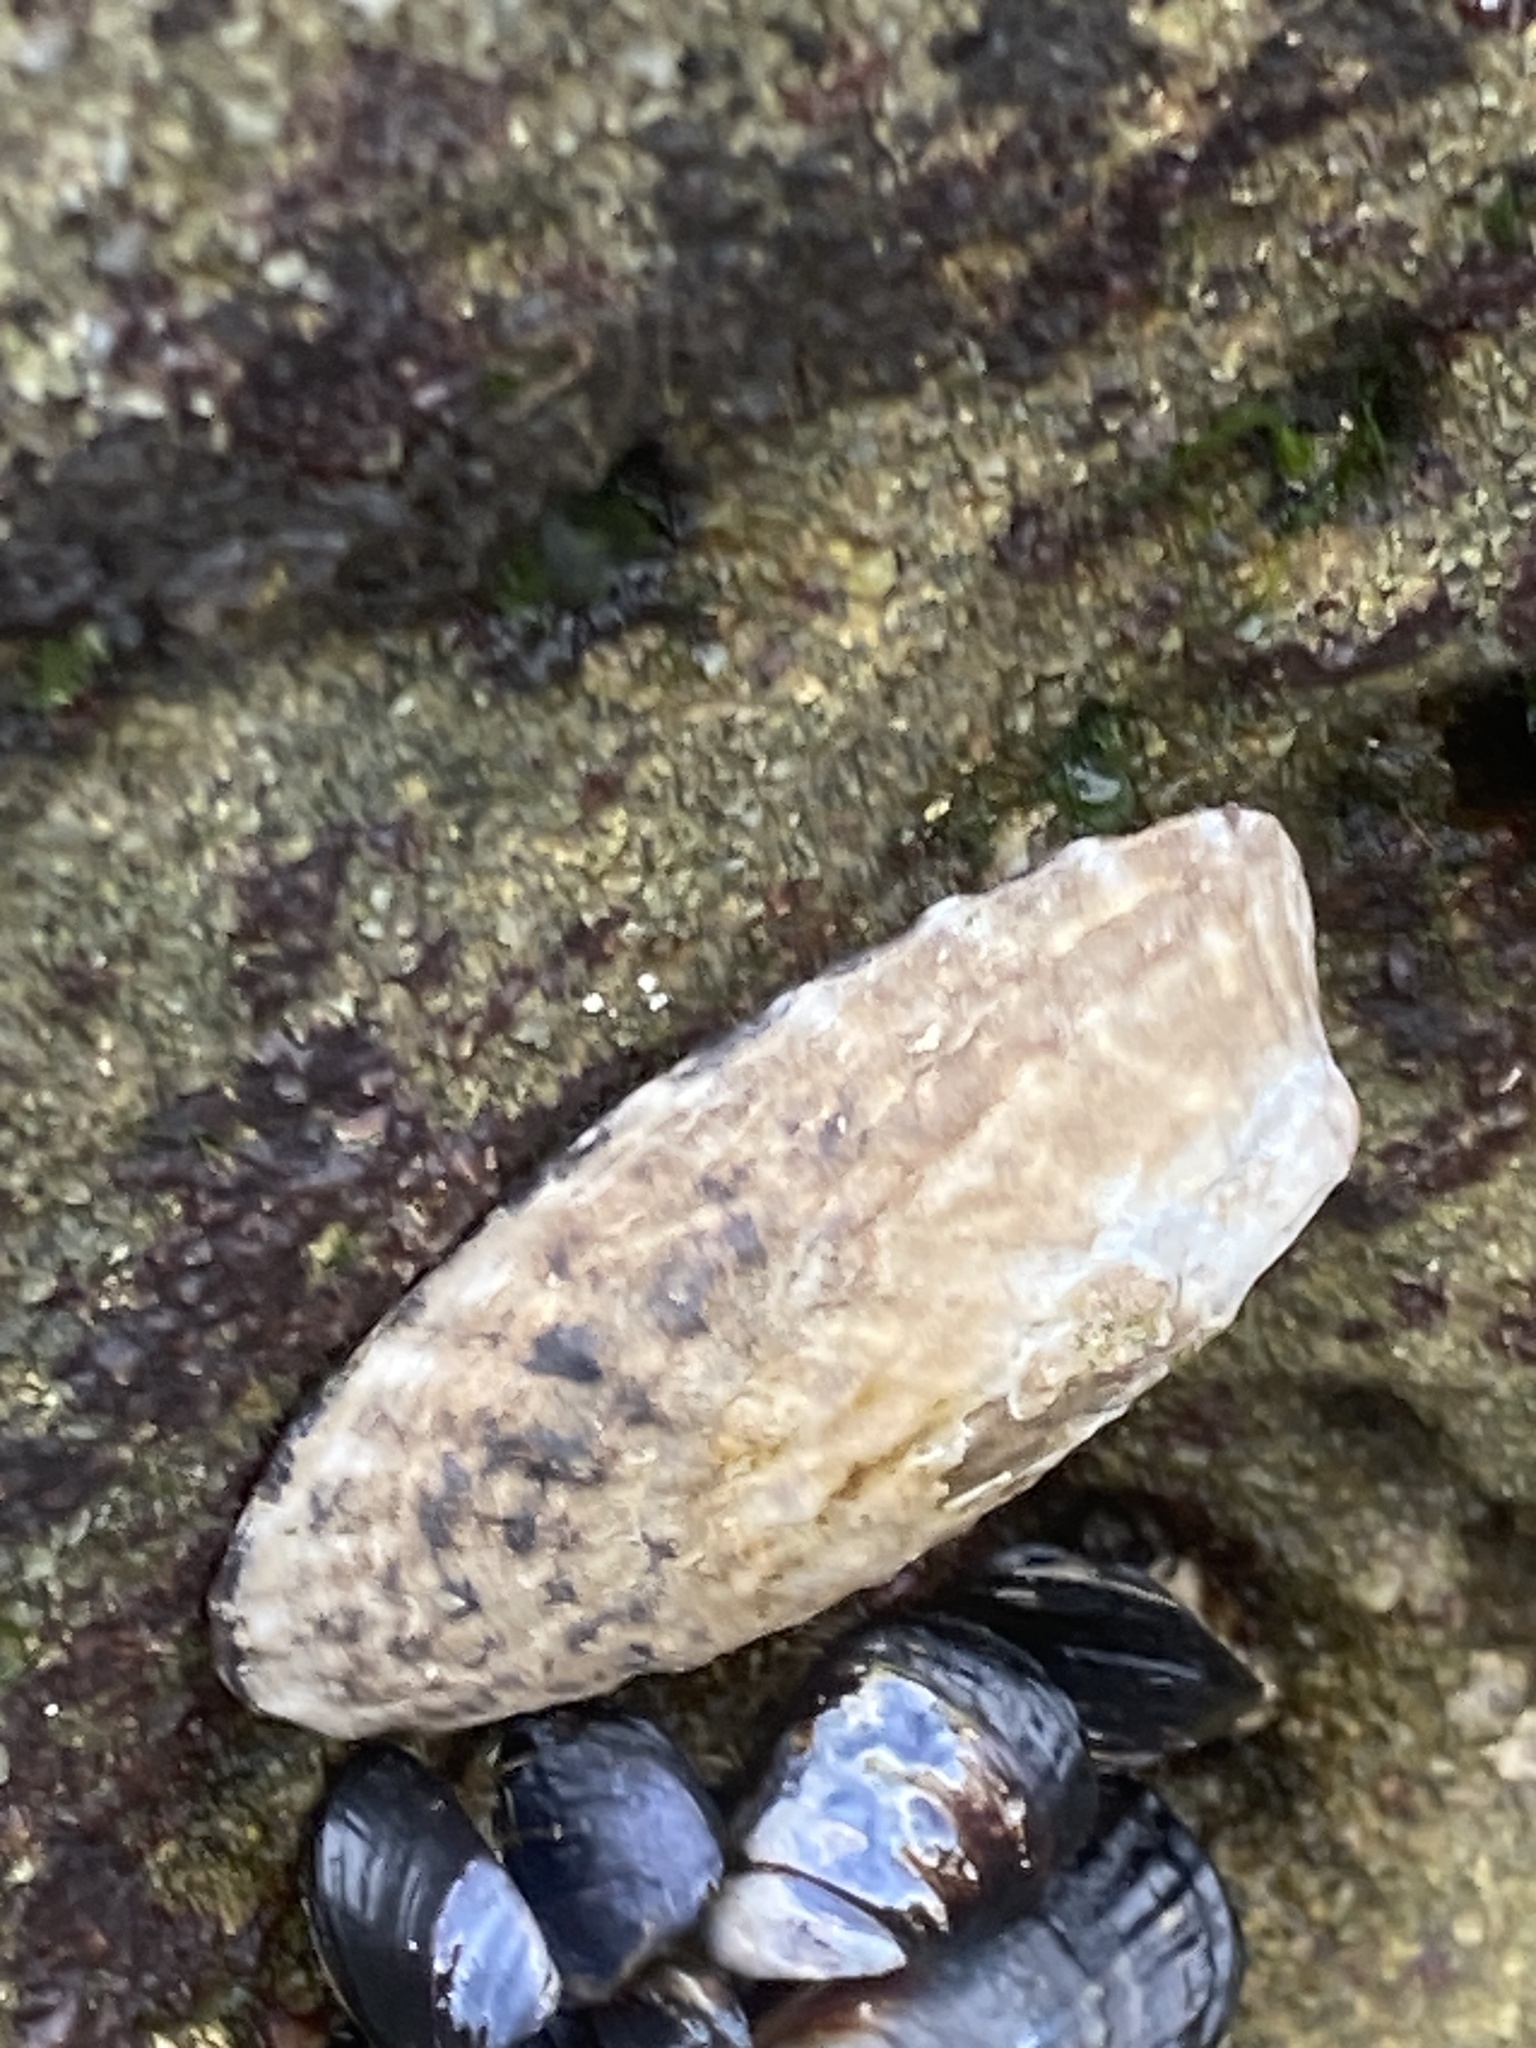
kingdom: Animalia
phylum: Mollusca
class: Gastropoda
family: Lottiidae
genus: Lottia
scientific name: Lottia gigantea
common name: Owl limpet
